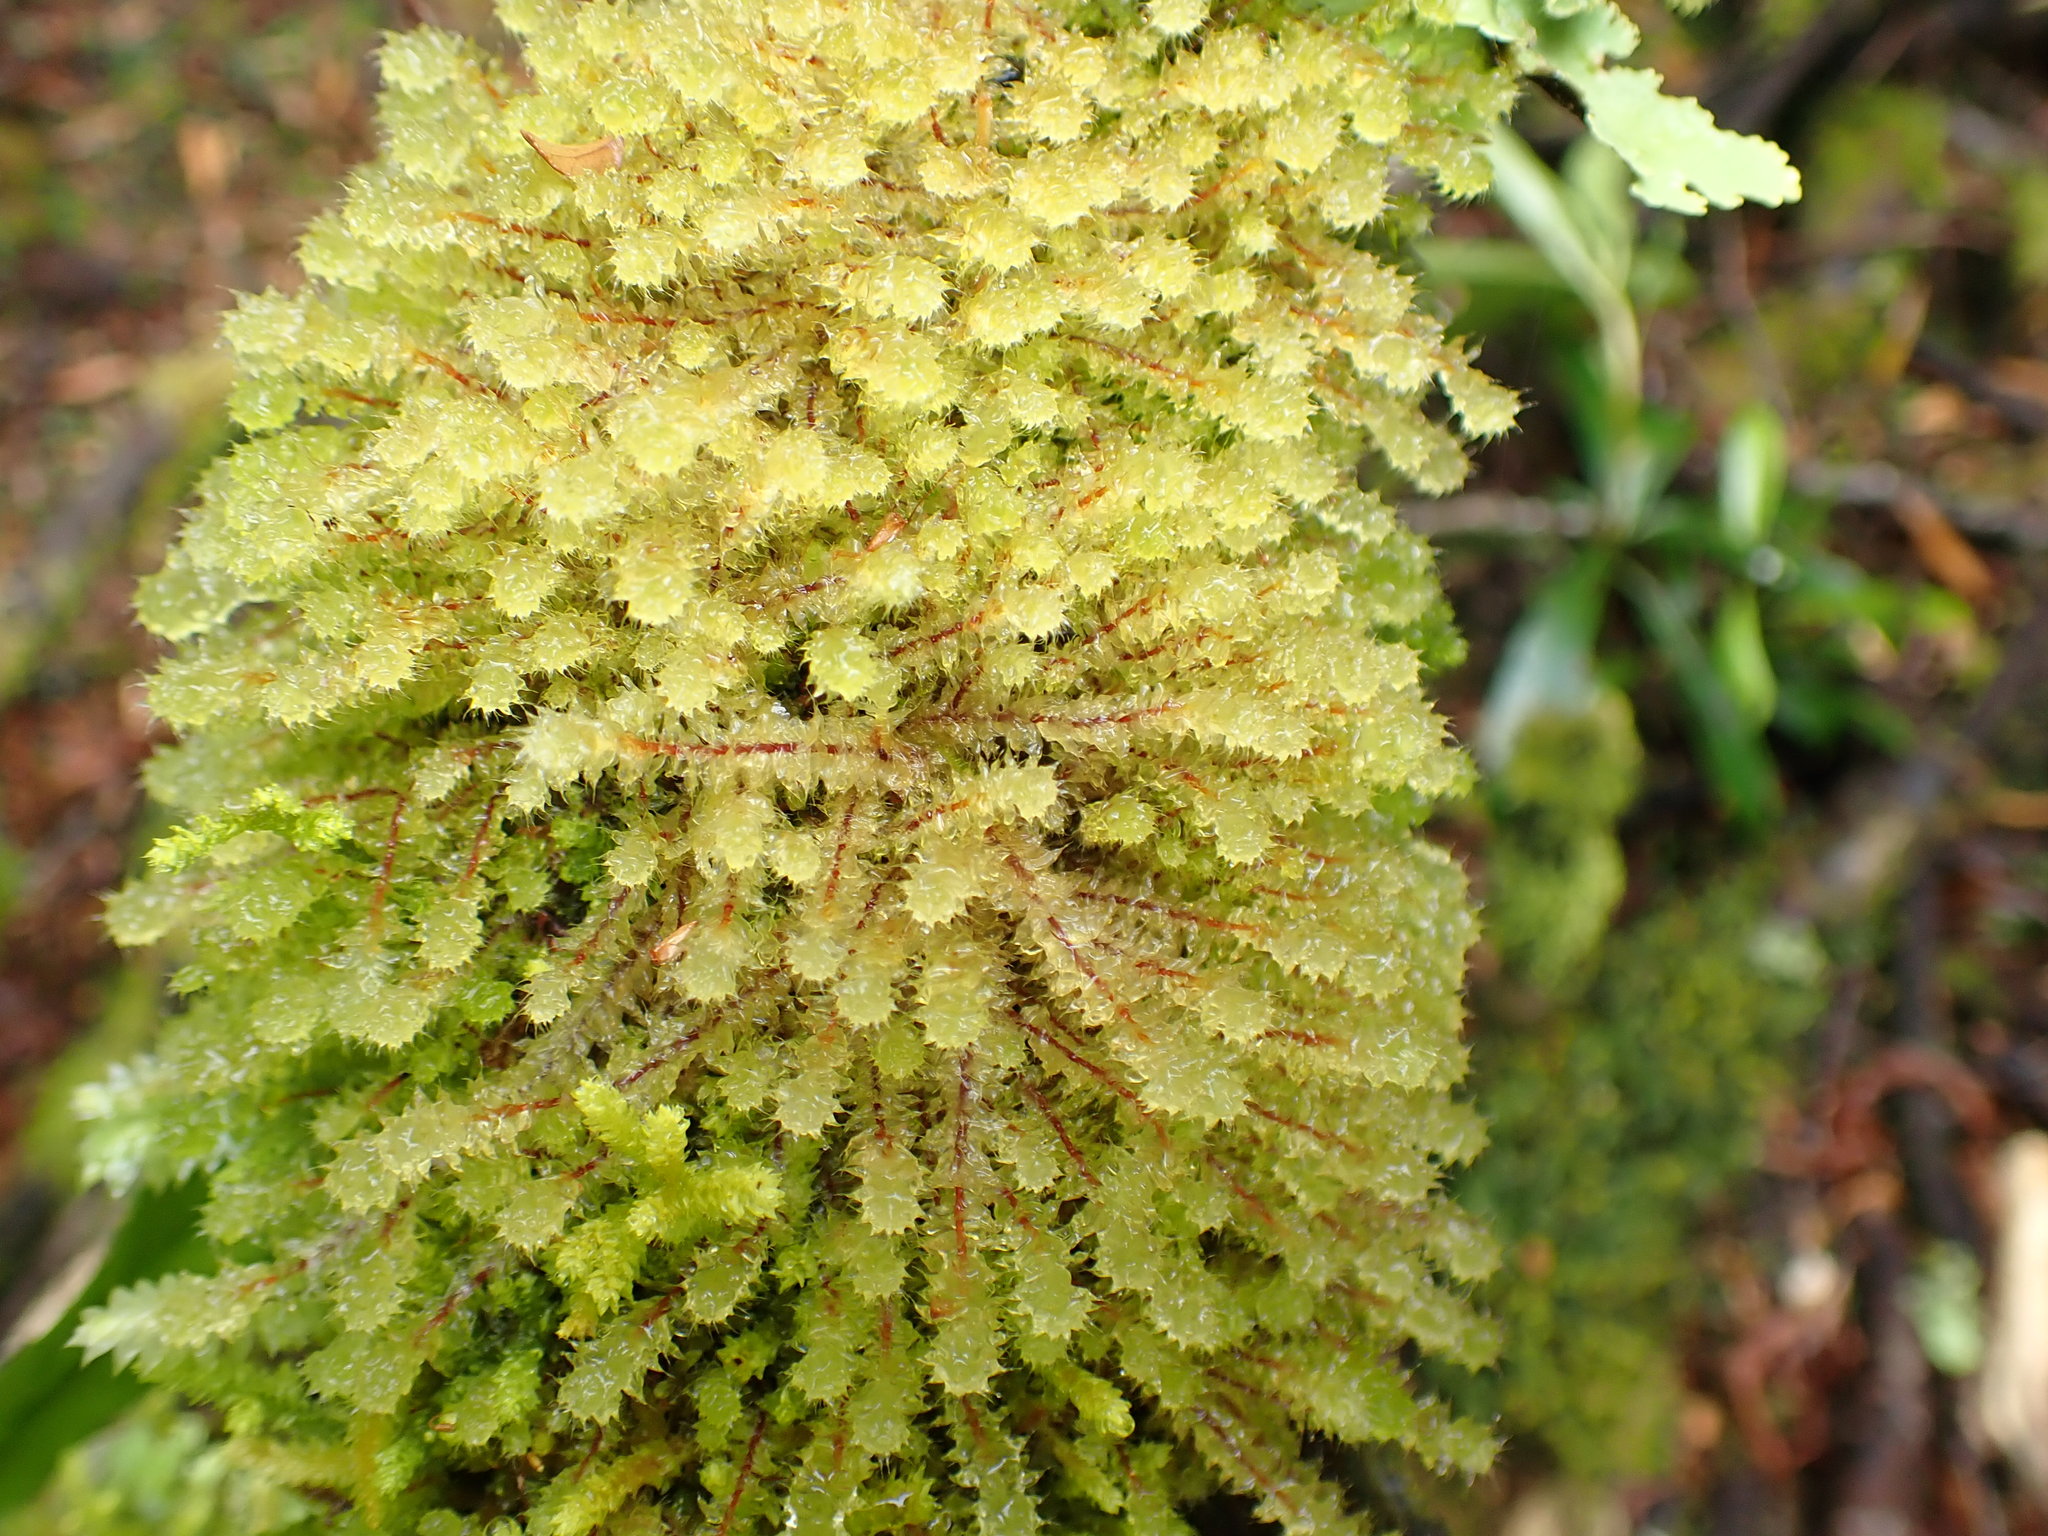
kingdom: Plantae
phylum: Bryophyta
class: Bryopsida
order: Ptychomniales
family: Ptychomniaceae
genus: Ptychomnion
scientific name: Ptychomnion aciculare
